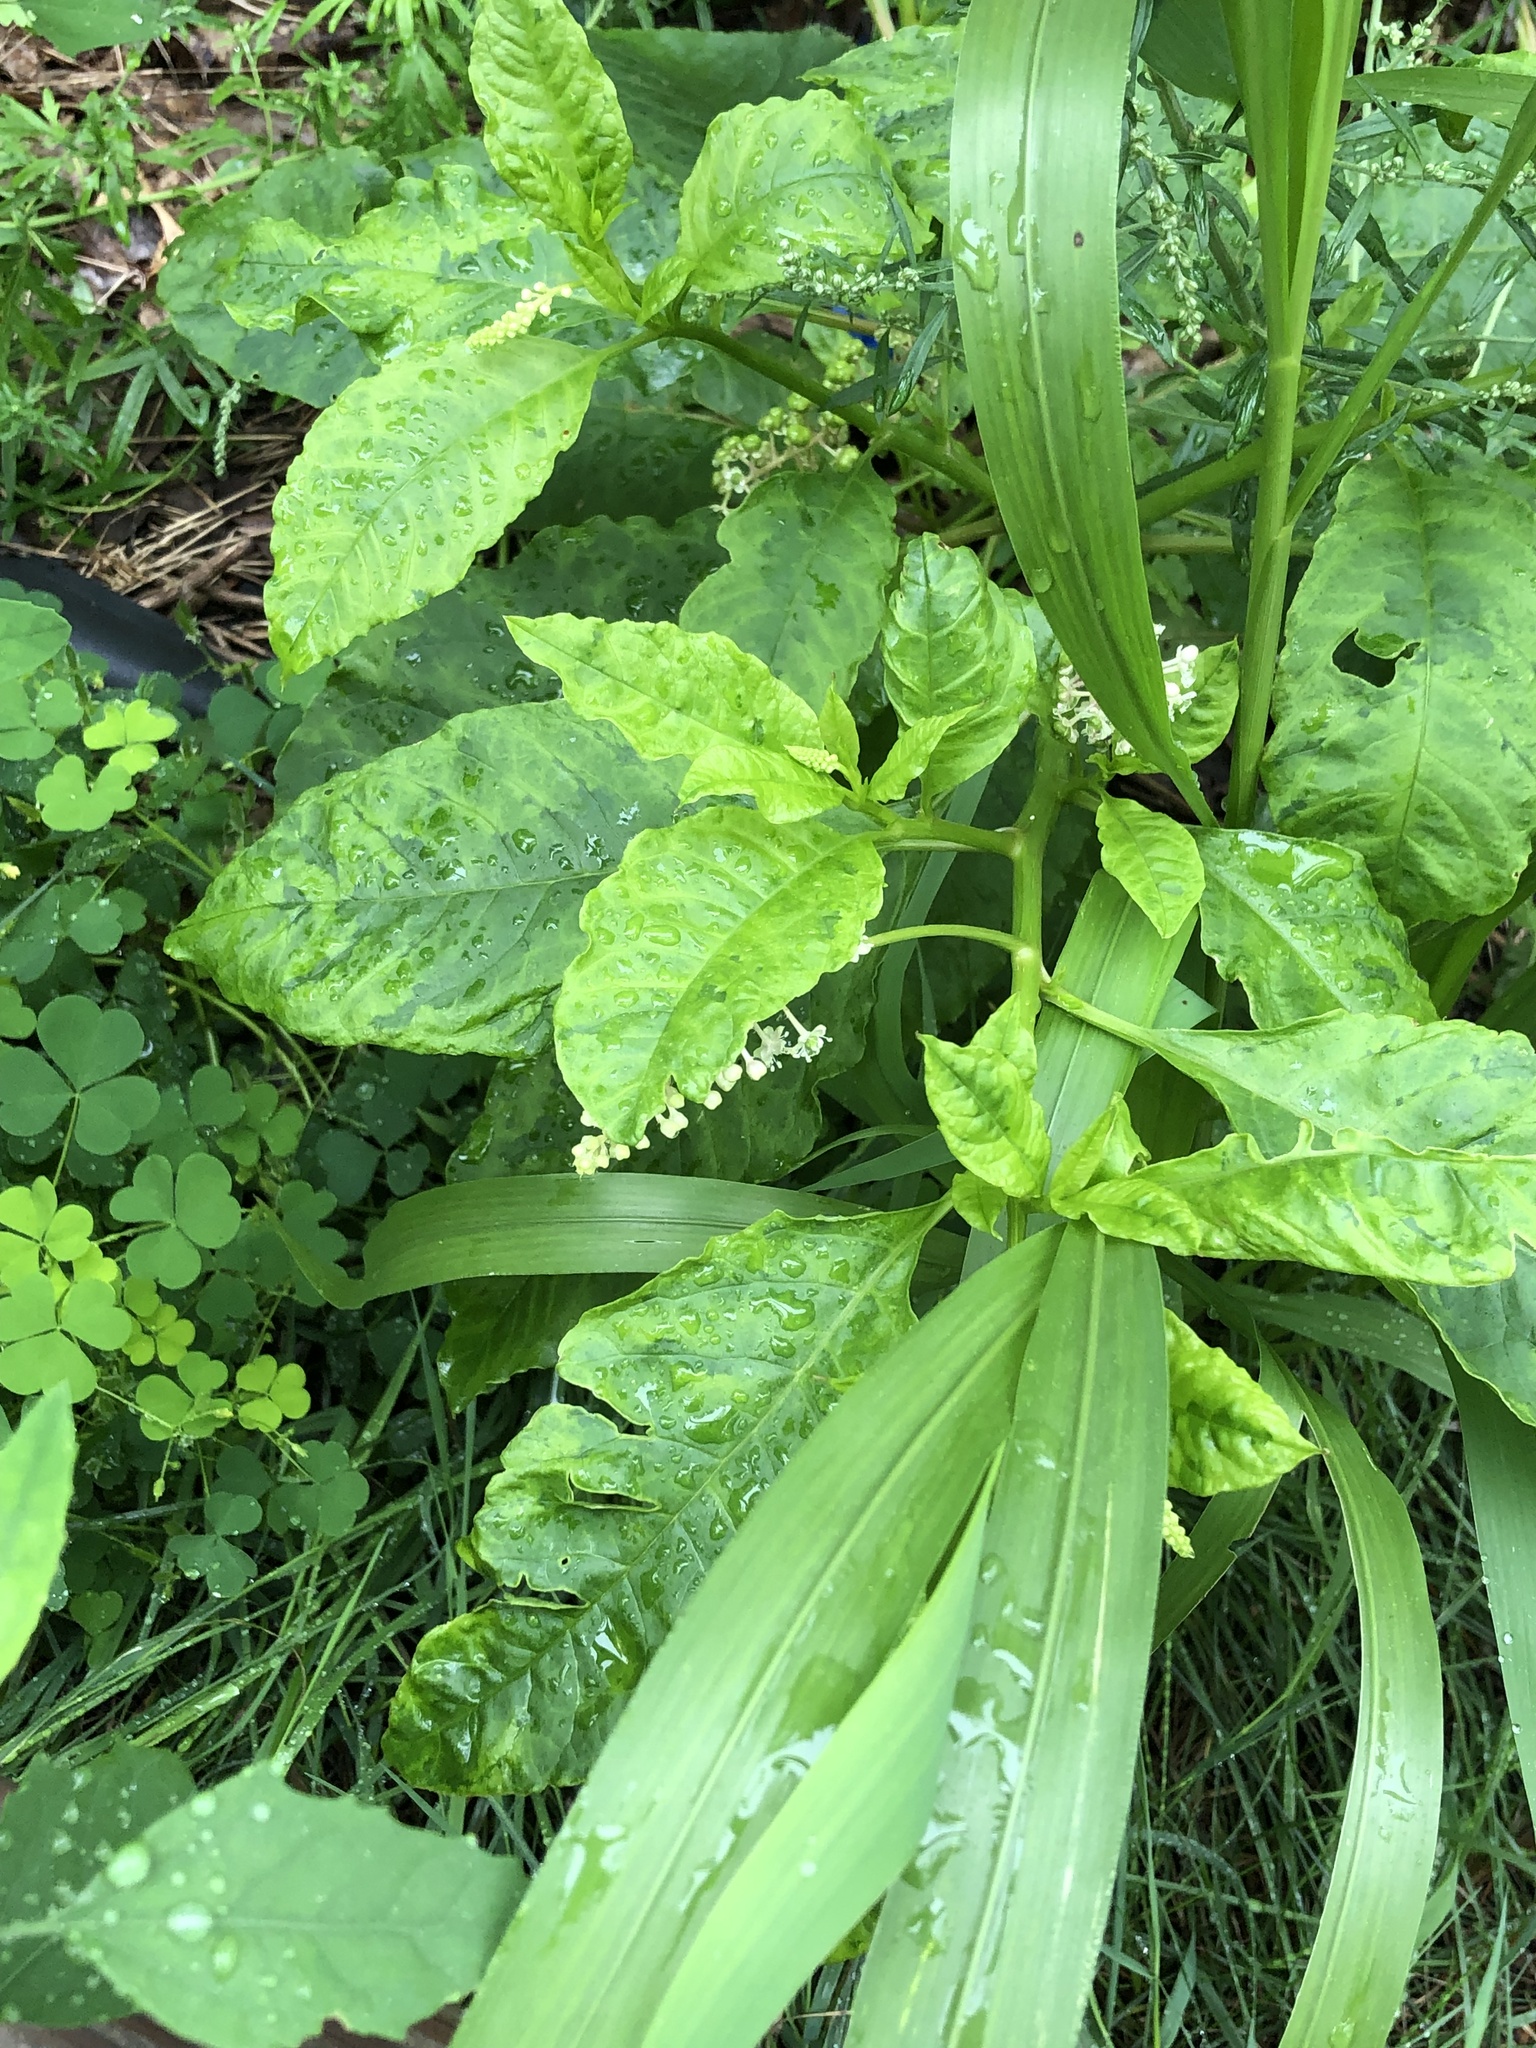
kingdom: Viruses
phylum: Pisuviricota
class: Stelpaviricetes
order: Patatavirales
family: Potyviridae
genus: Potyvirus
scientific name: Potyvirus Pokeweed mosaic virus
